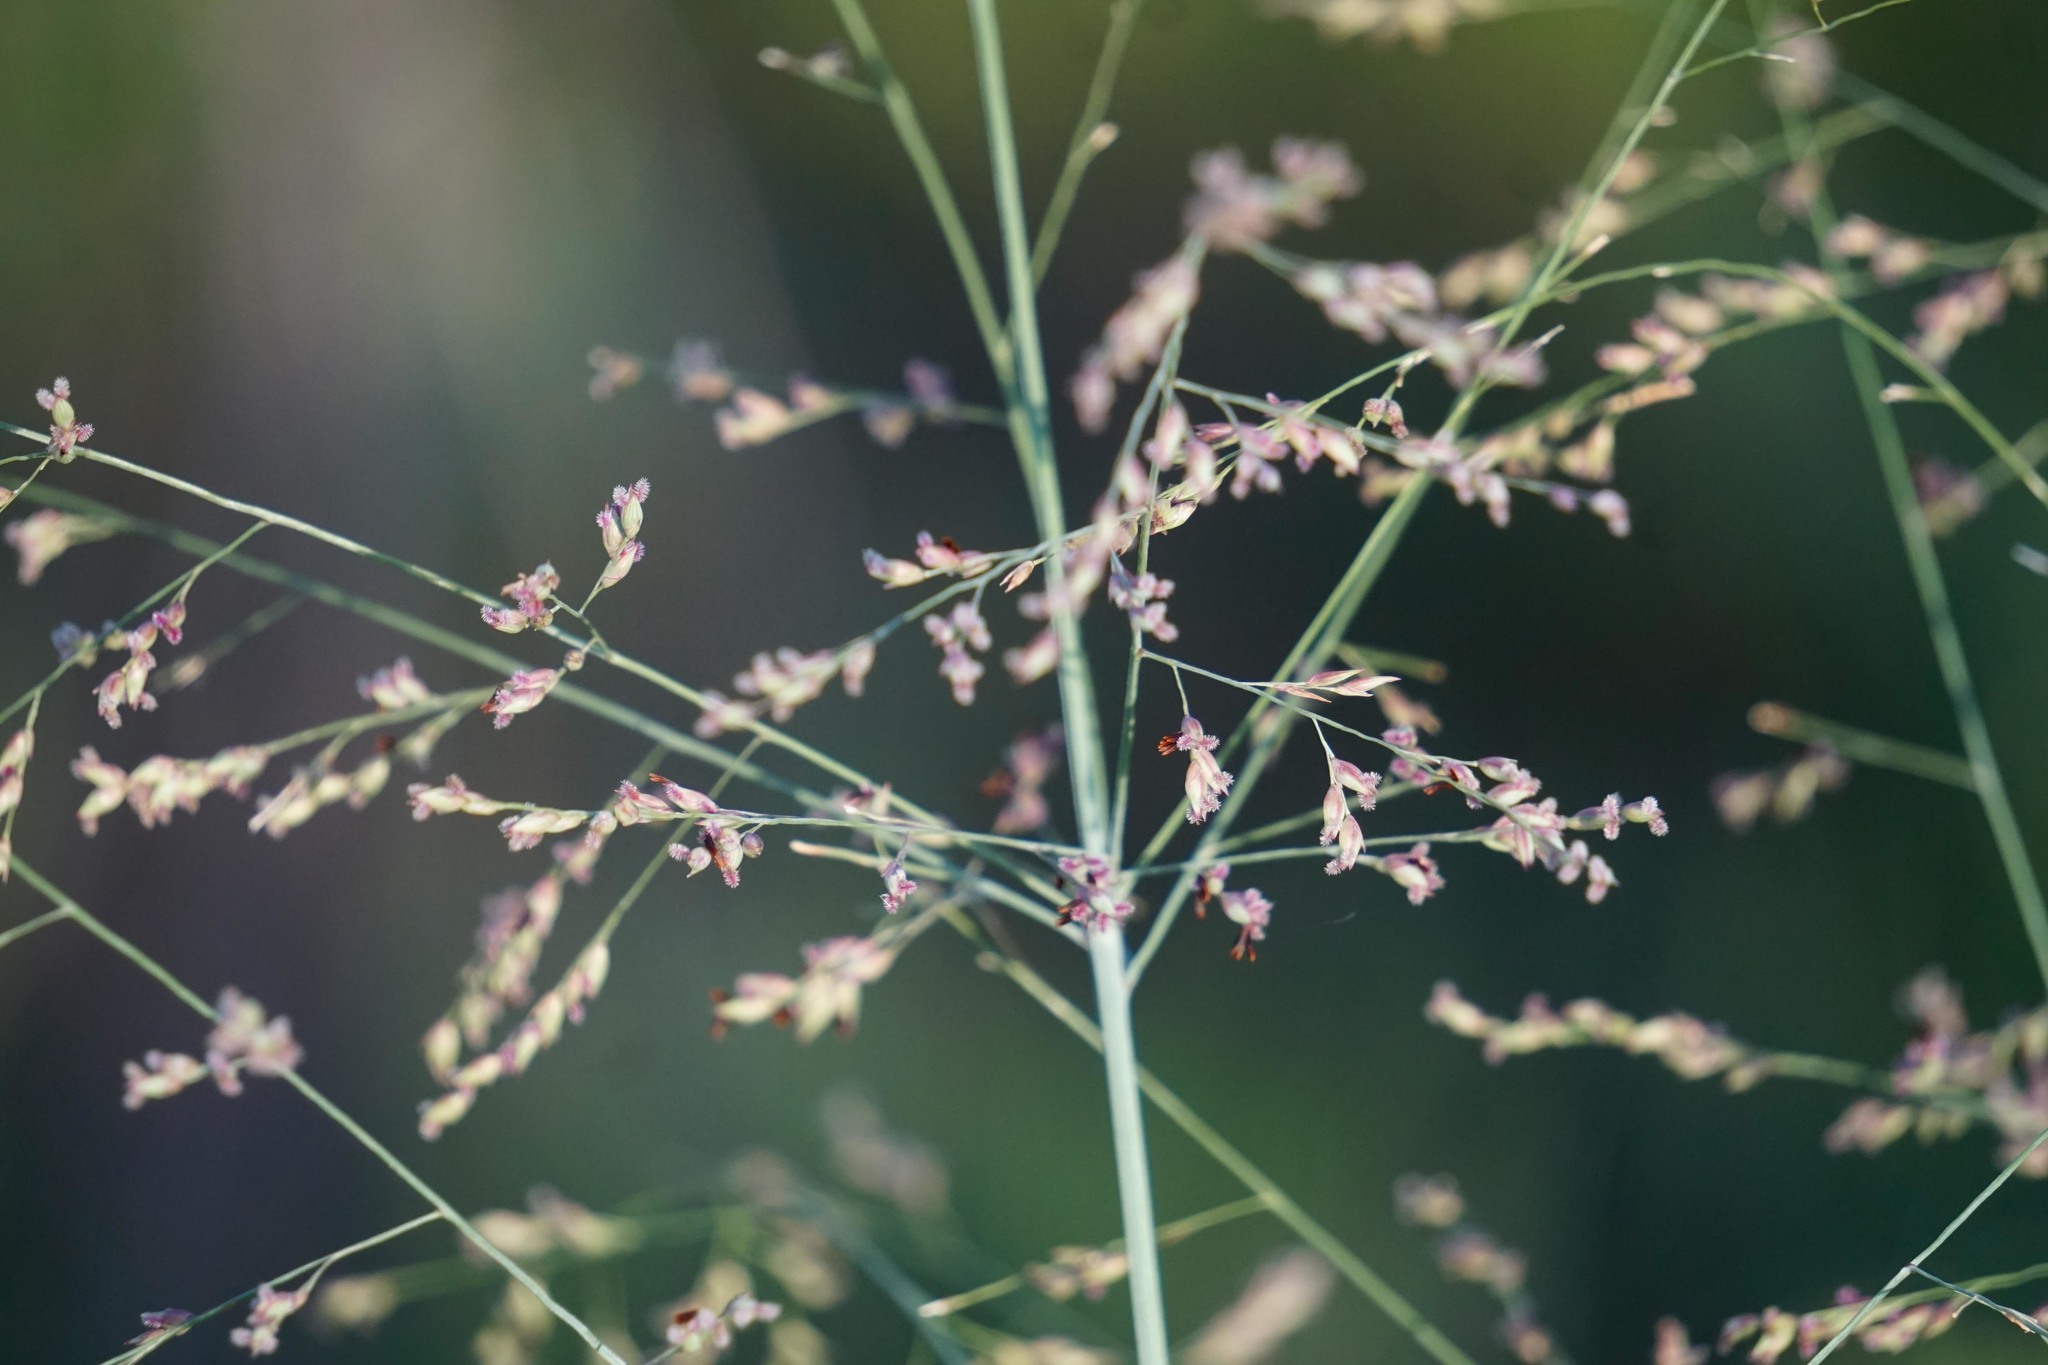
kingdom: Plantae
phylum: Tracheophyta
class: Liliopsida
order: Poales
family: Poaceae
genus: Panicum
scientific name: Panicum virgatum
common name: Switchgrass
